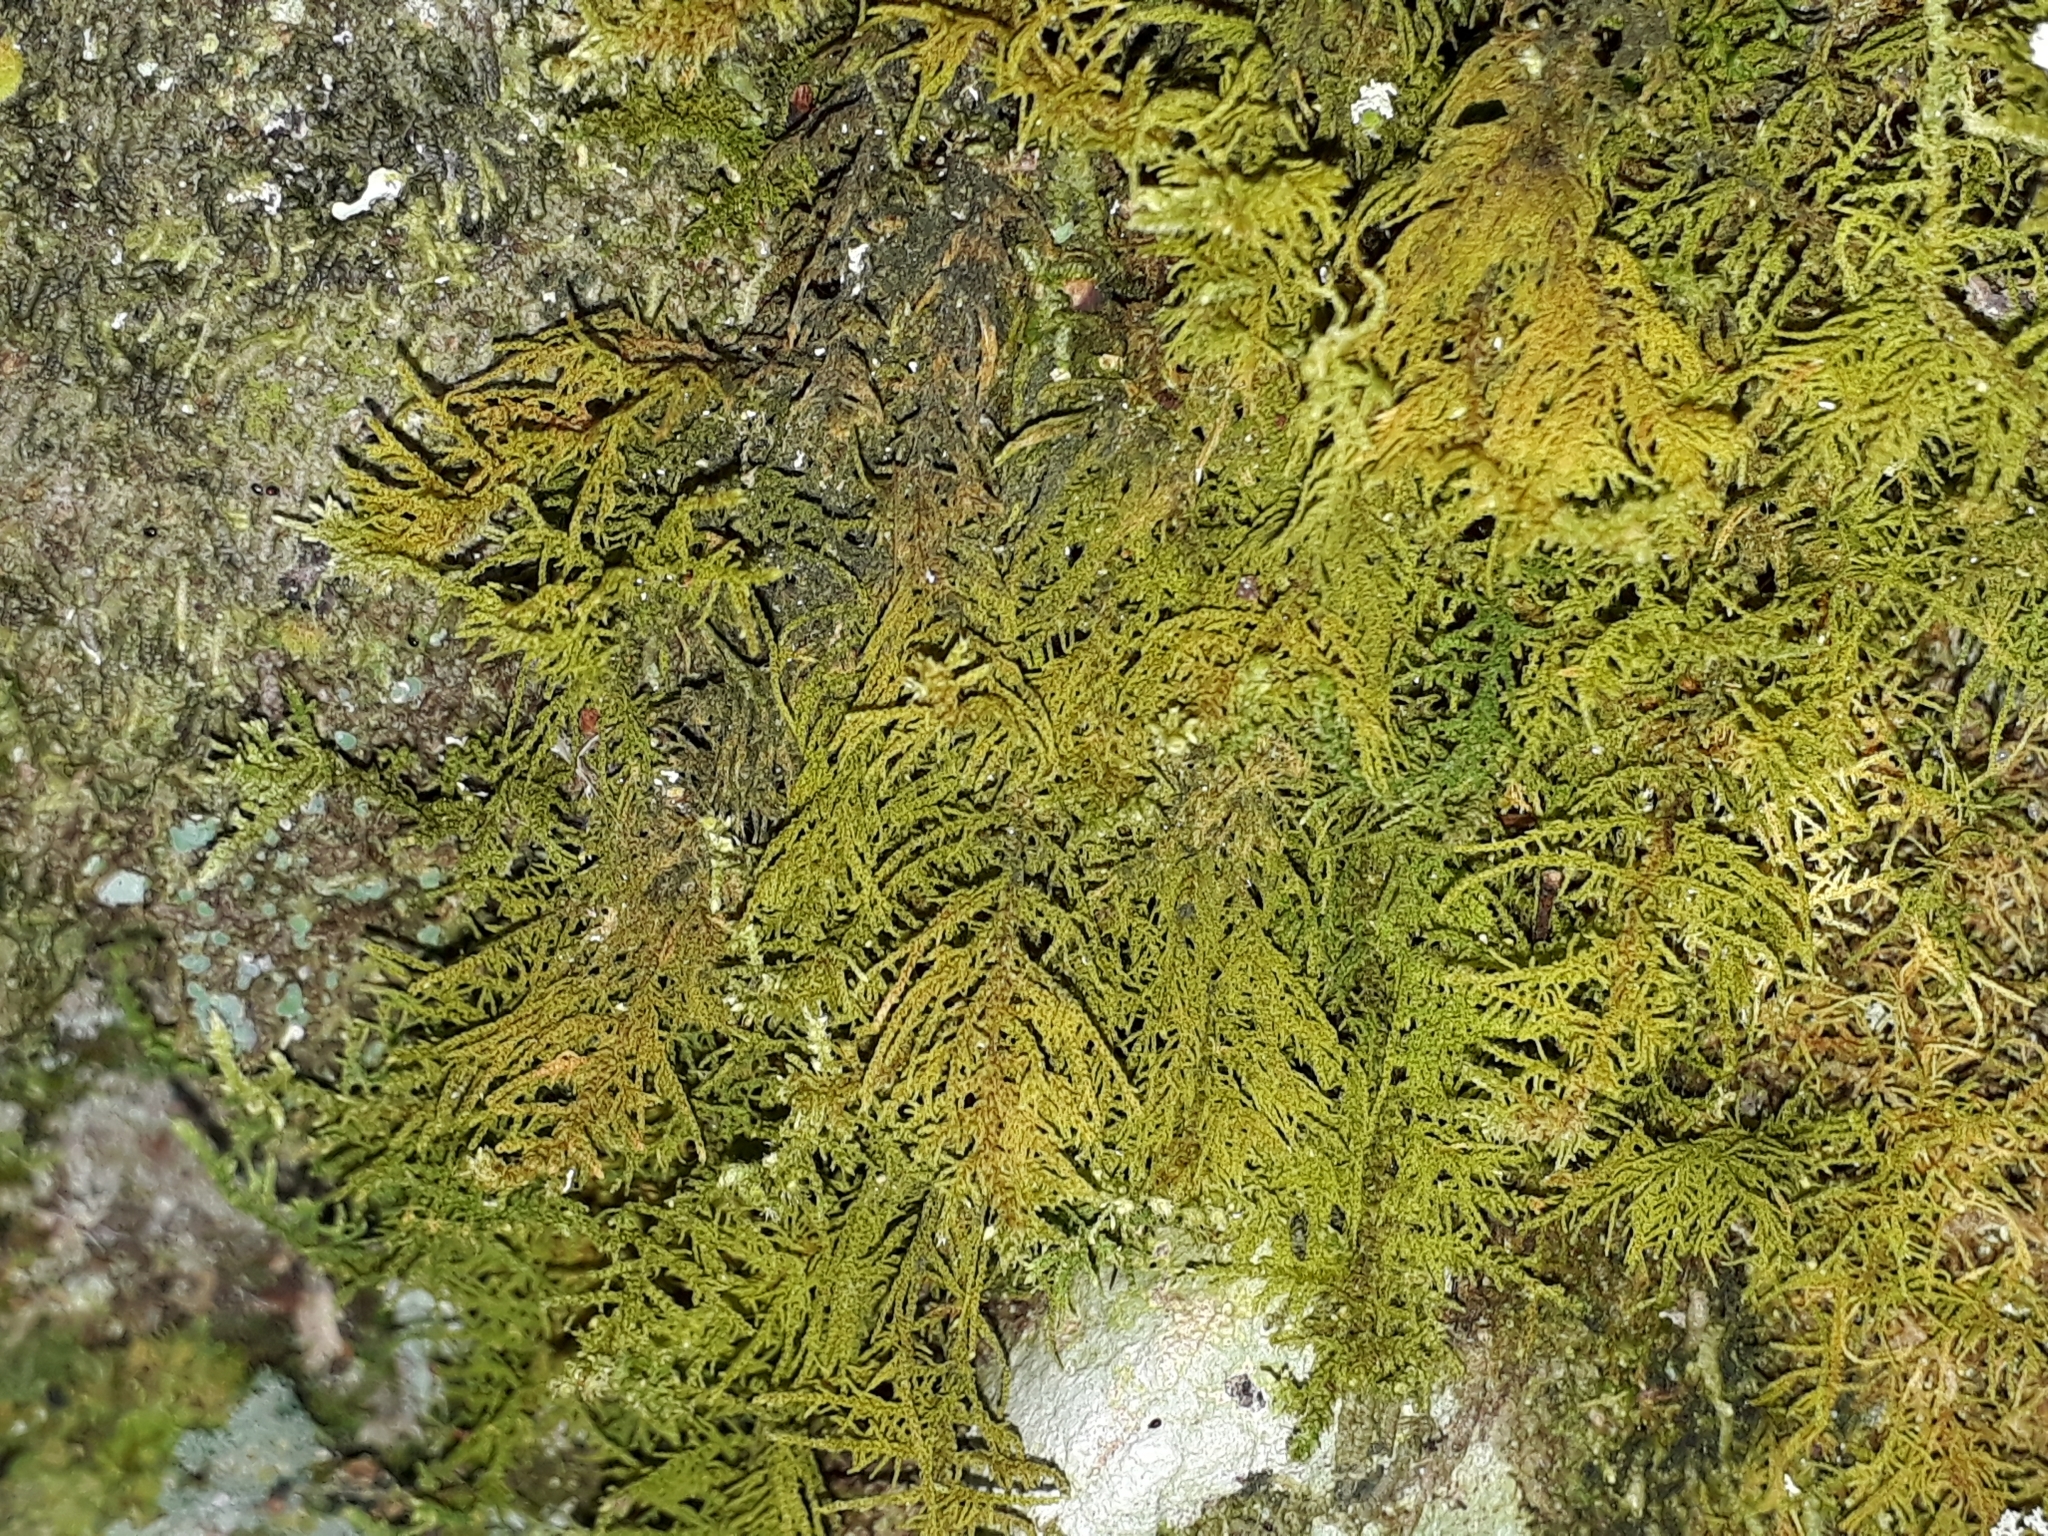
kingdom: Plantae
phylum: Bryophyta
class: Bryopsida
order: Hypnales
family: Thuidiaceae
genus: Thuidiopsis
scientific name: Thuidiopsis furfurosa
